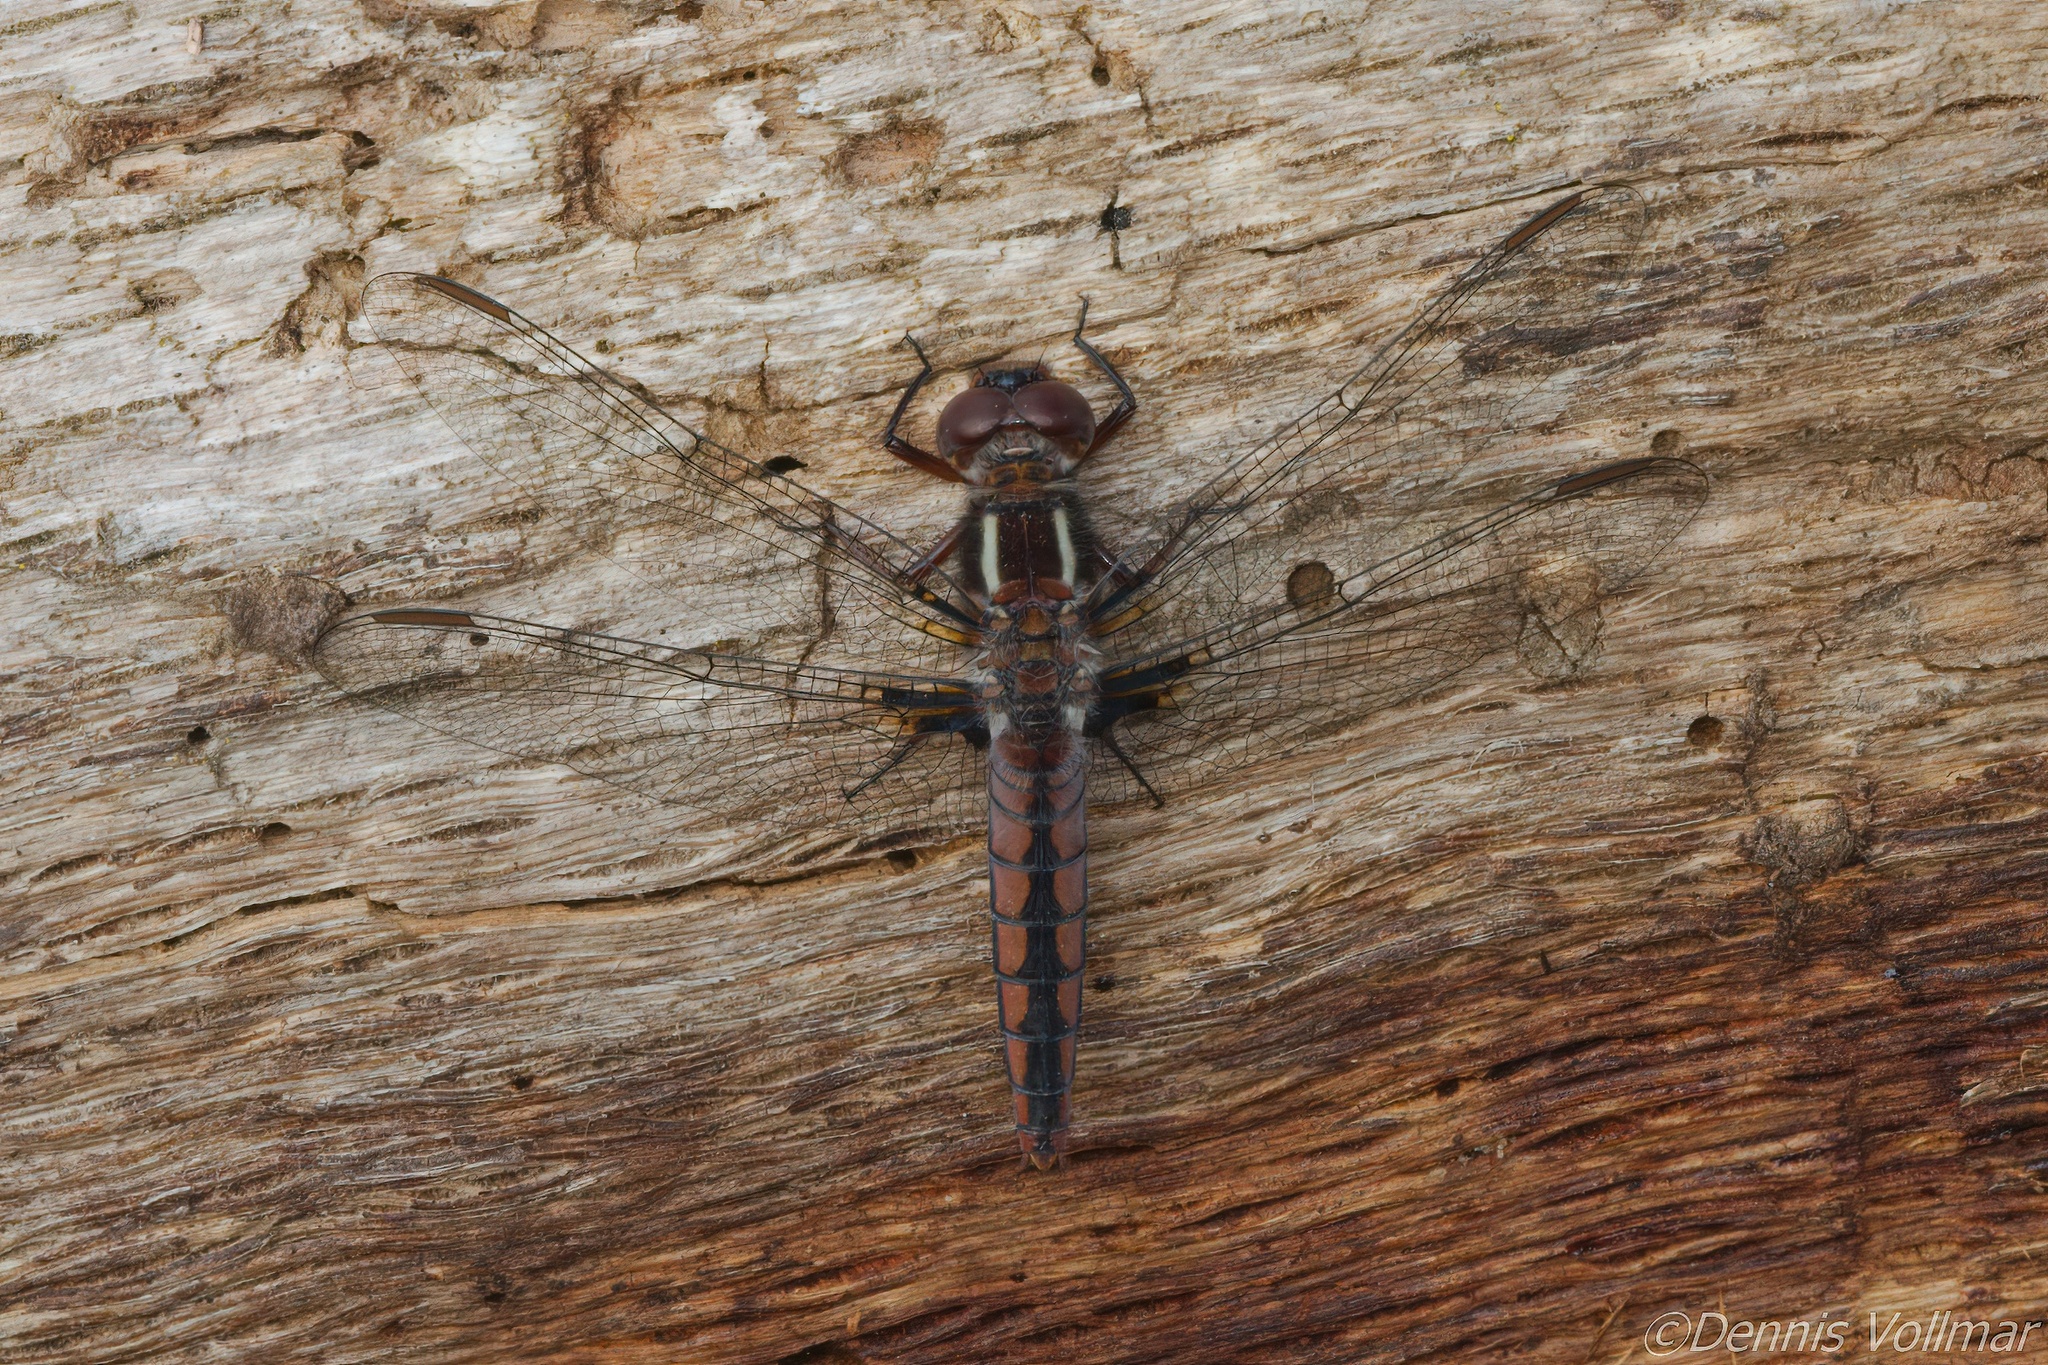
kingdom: Animalia
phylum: Arthropoda
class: Insecta
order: Odonata
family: Libellulidae
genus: Ladona
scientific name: Ladona deplanata
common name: Blue corporal
